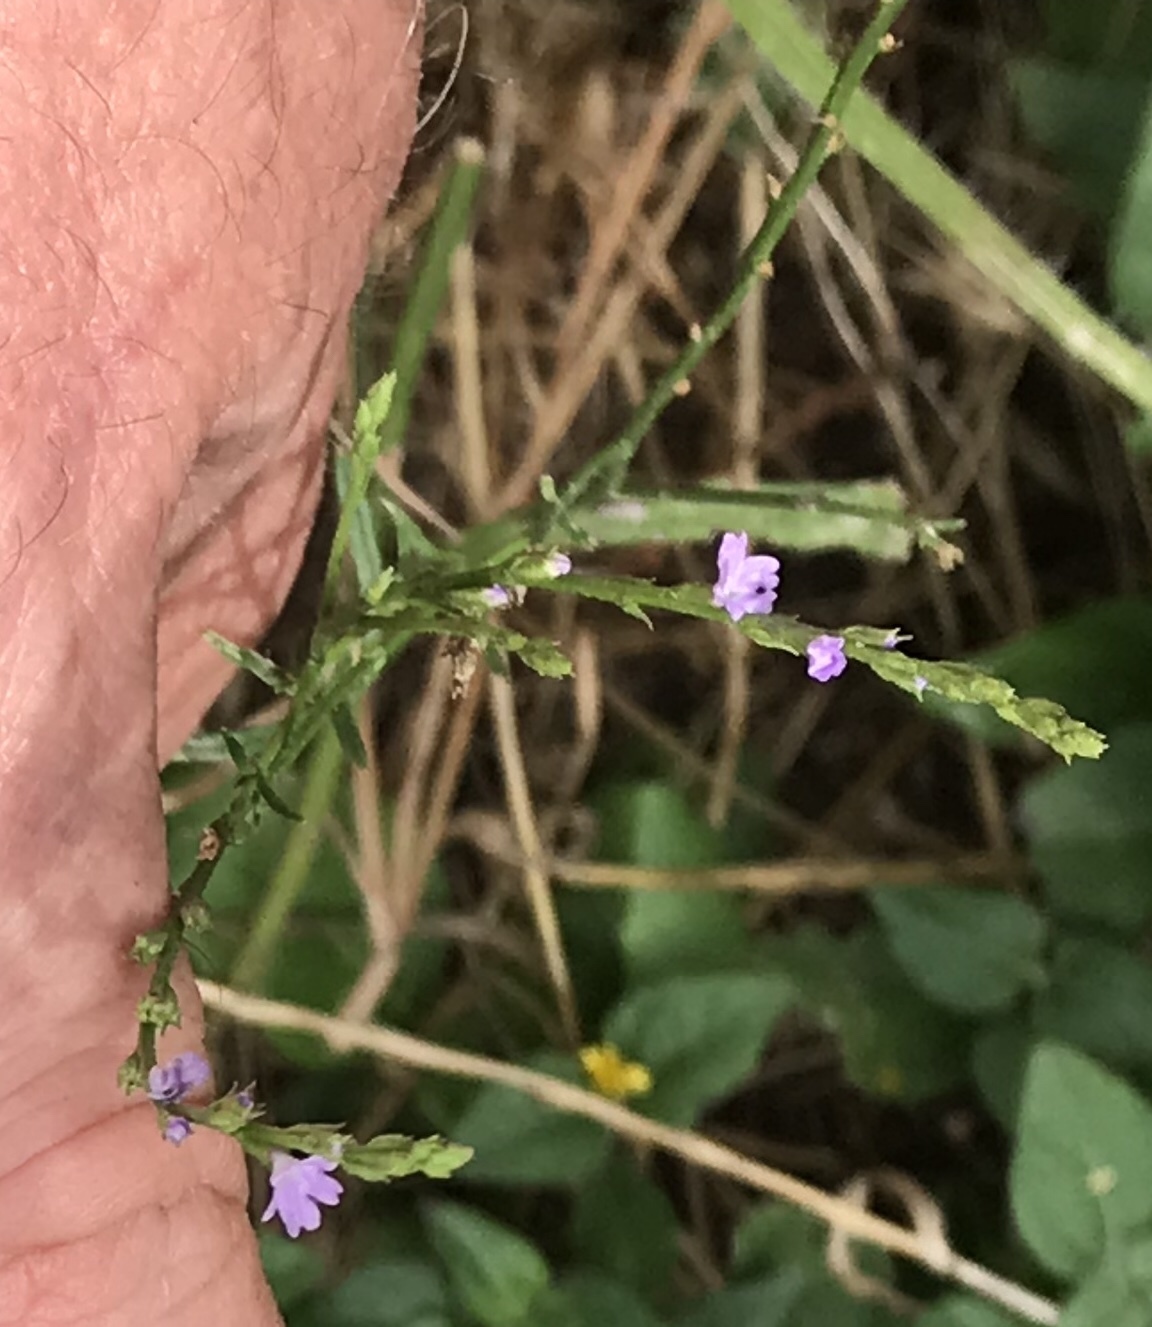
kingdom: Plantae
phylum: Tracheophyta
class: Magnoliopsida
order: Lamiales
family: Verbenaceae
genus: Verbena
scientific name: Verbena halei
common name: Texas vervain
